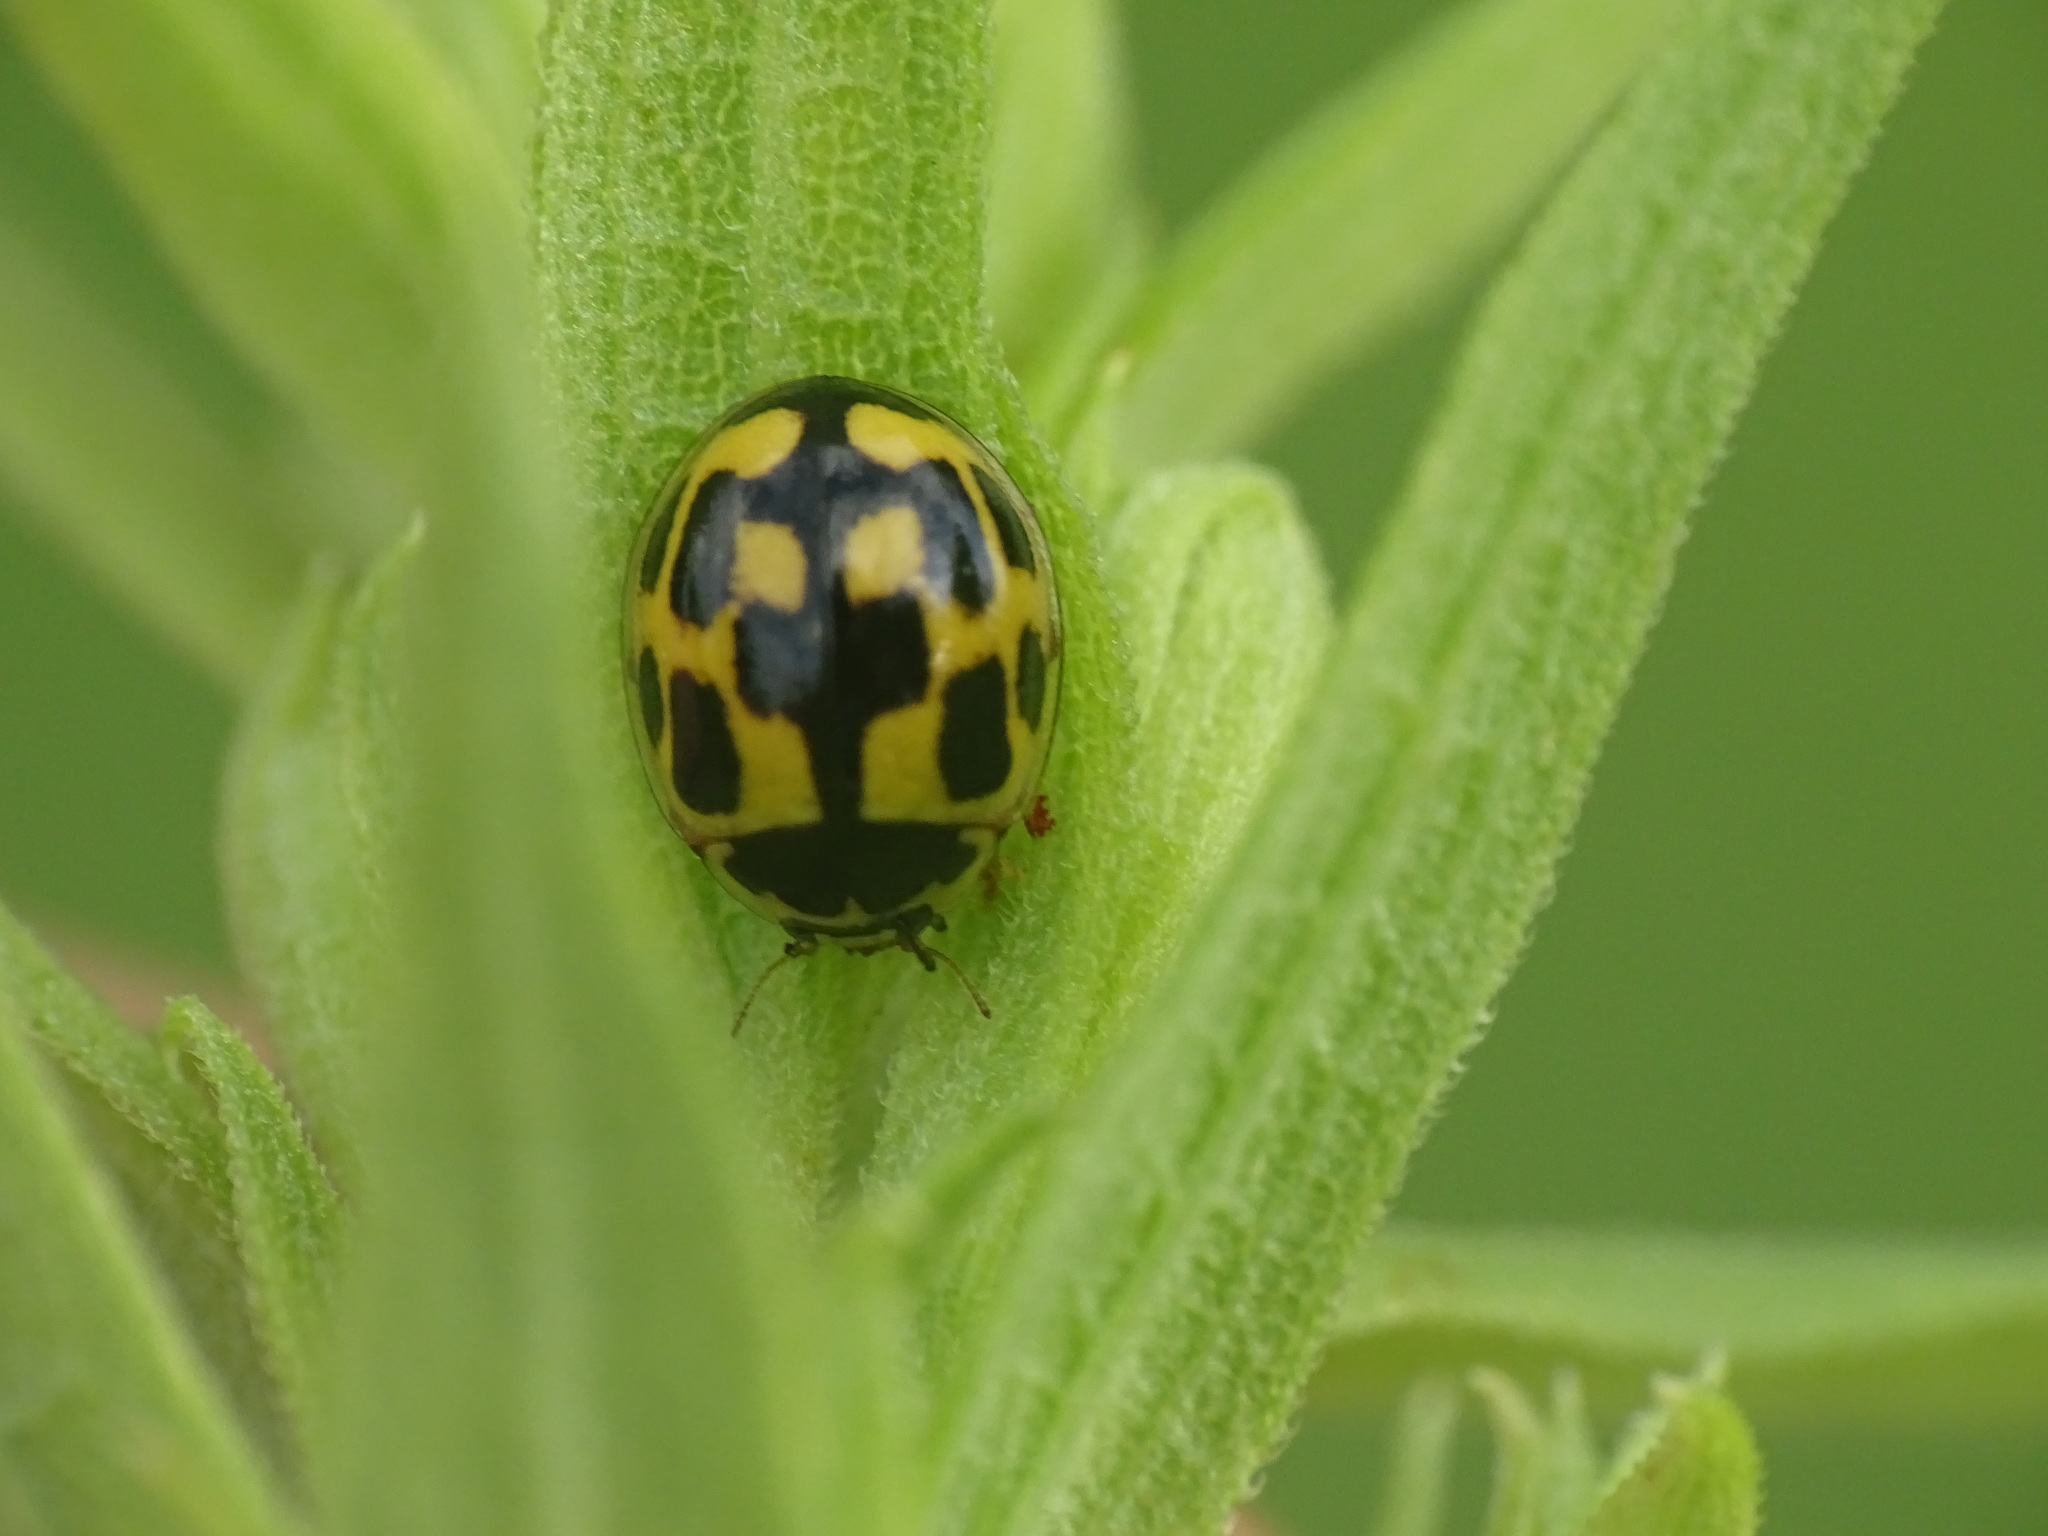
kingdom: Animalia
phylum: Arthropoda
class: Insecta
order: Coleoptera
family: Coccinellidae
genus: Propylaea
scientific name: Propylaea quatuordecimpunctata
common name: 14-spotted ladybird beetle
